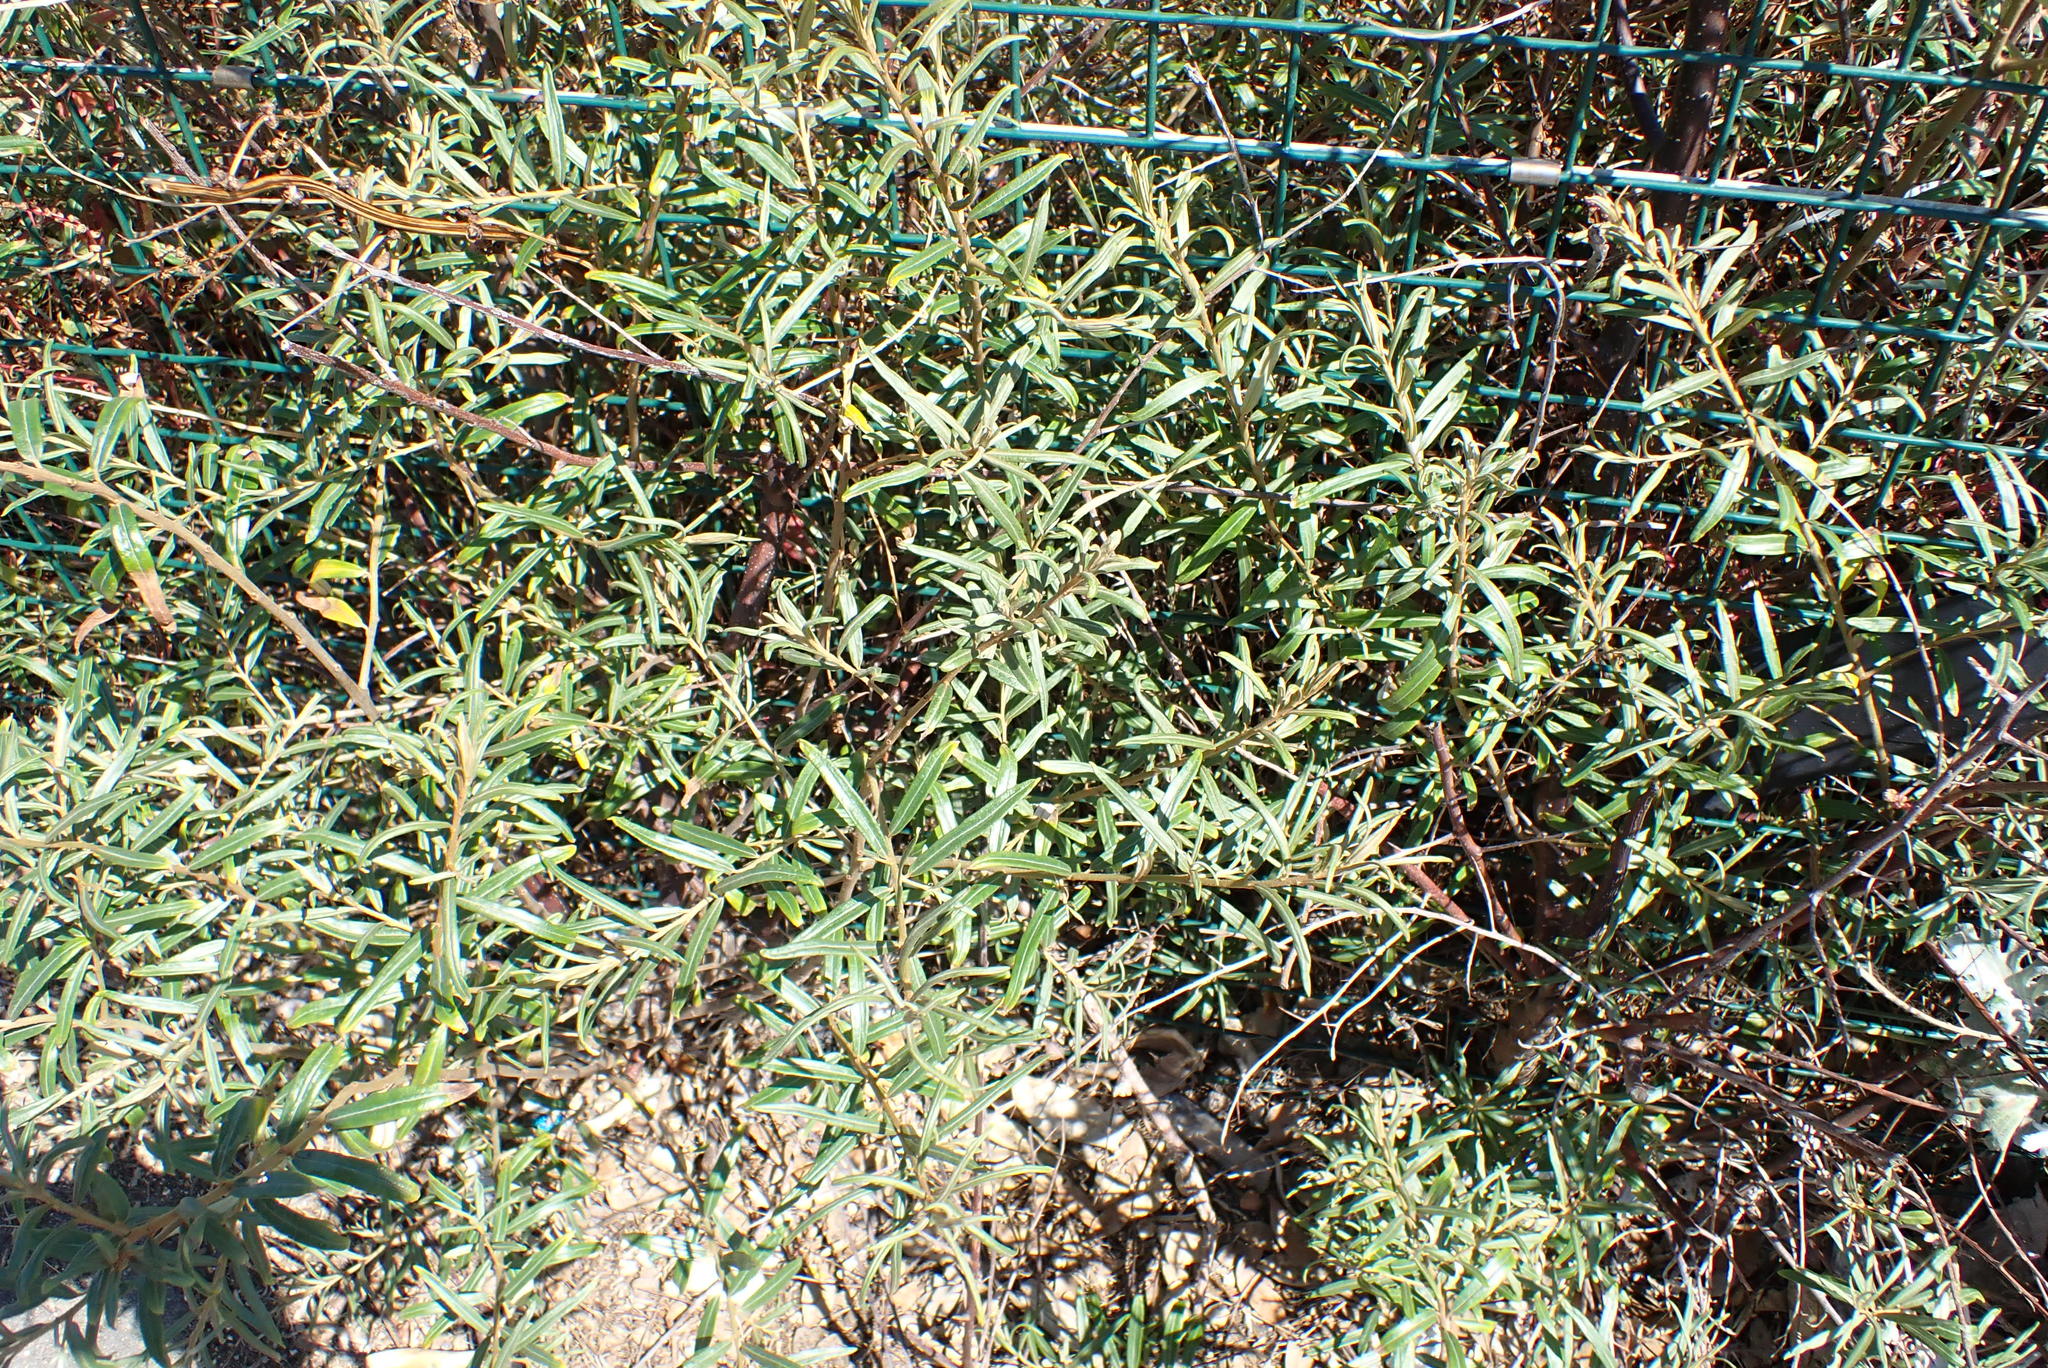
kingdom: Plantae
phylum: Tracheophyta
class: Magnoliopsida
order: Rosales
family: Elaeagnaceae
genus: Hippophae
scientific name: Hippophae rhamnoides
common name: Sea-buckthorn
